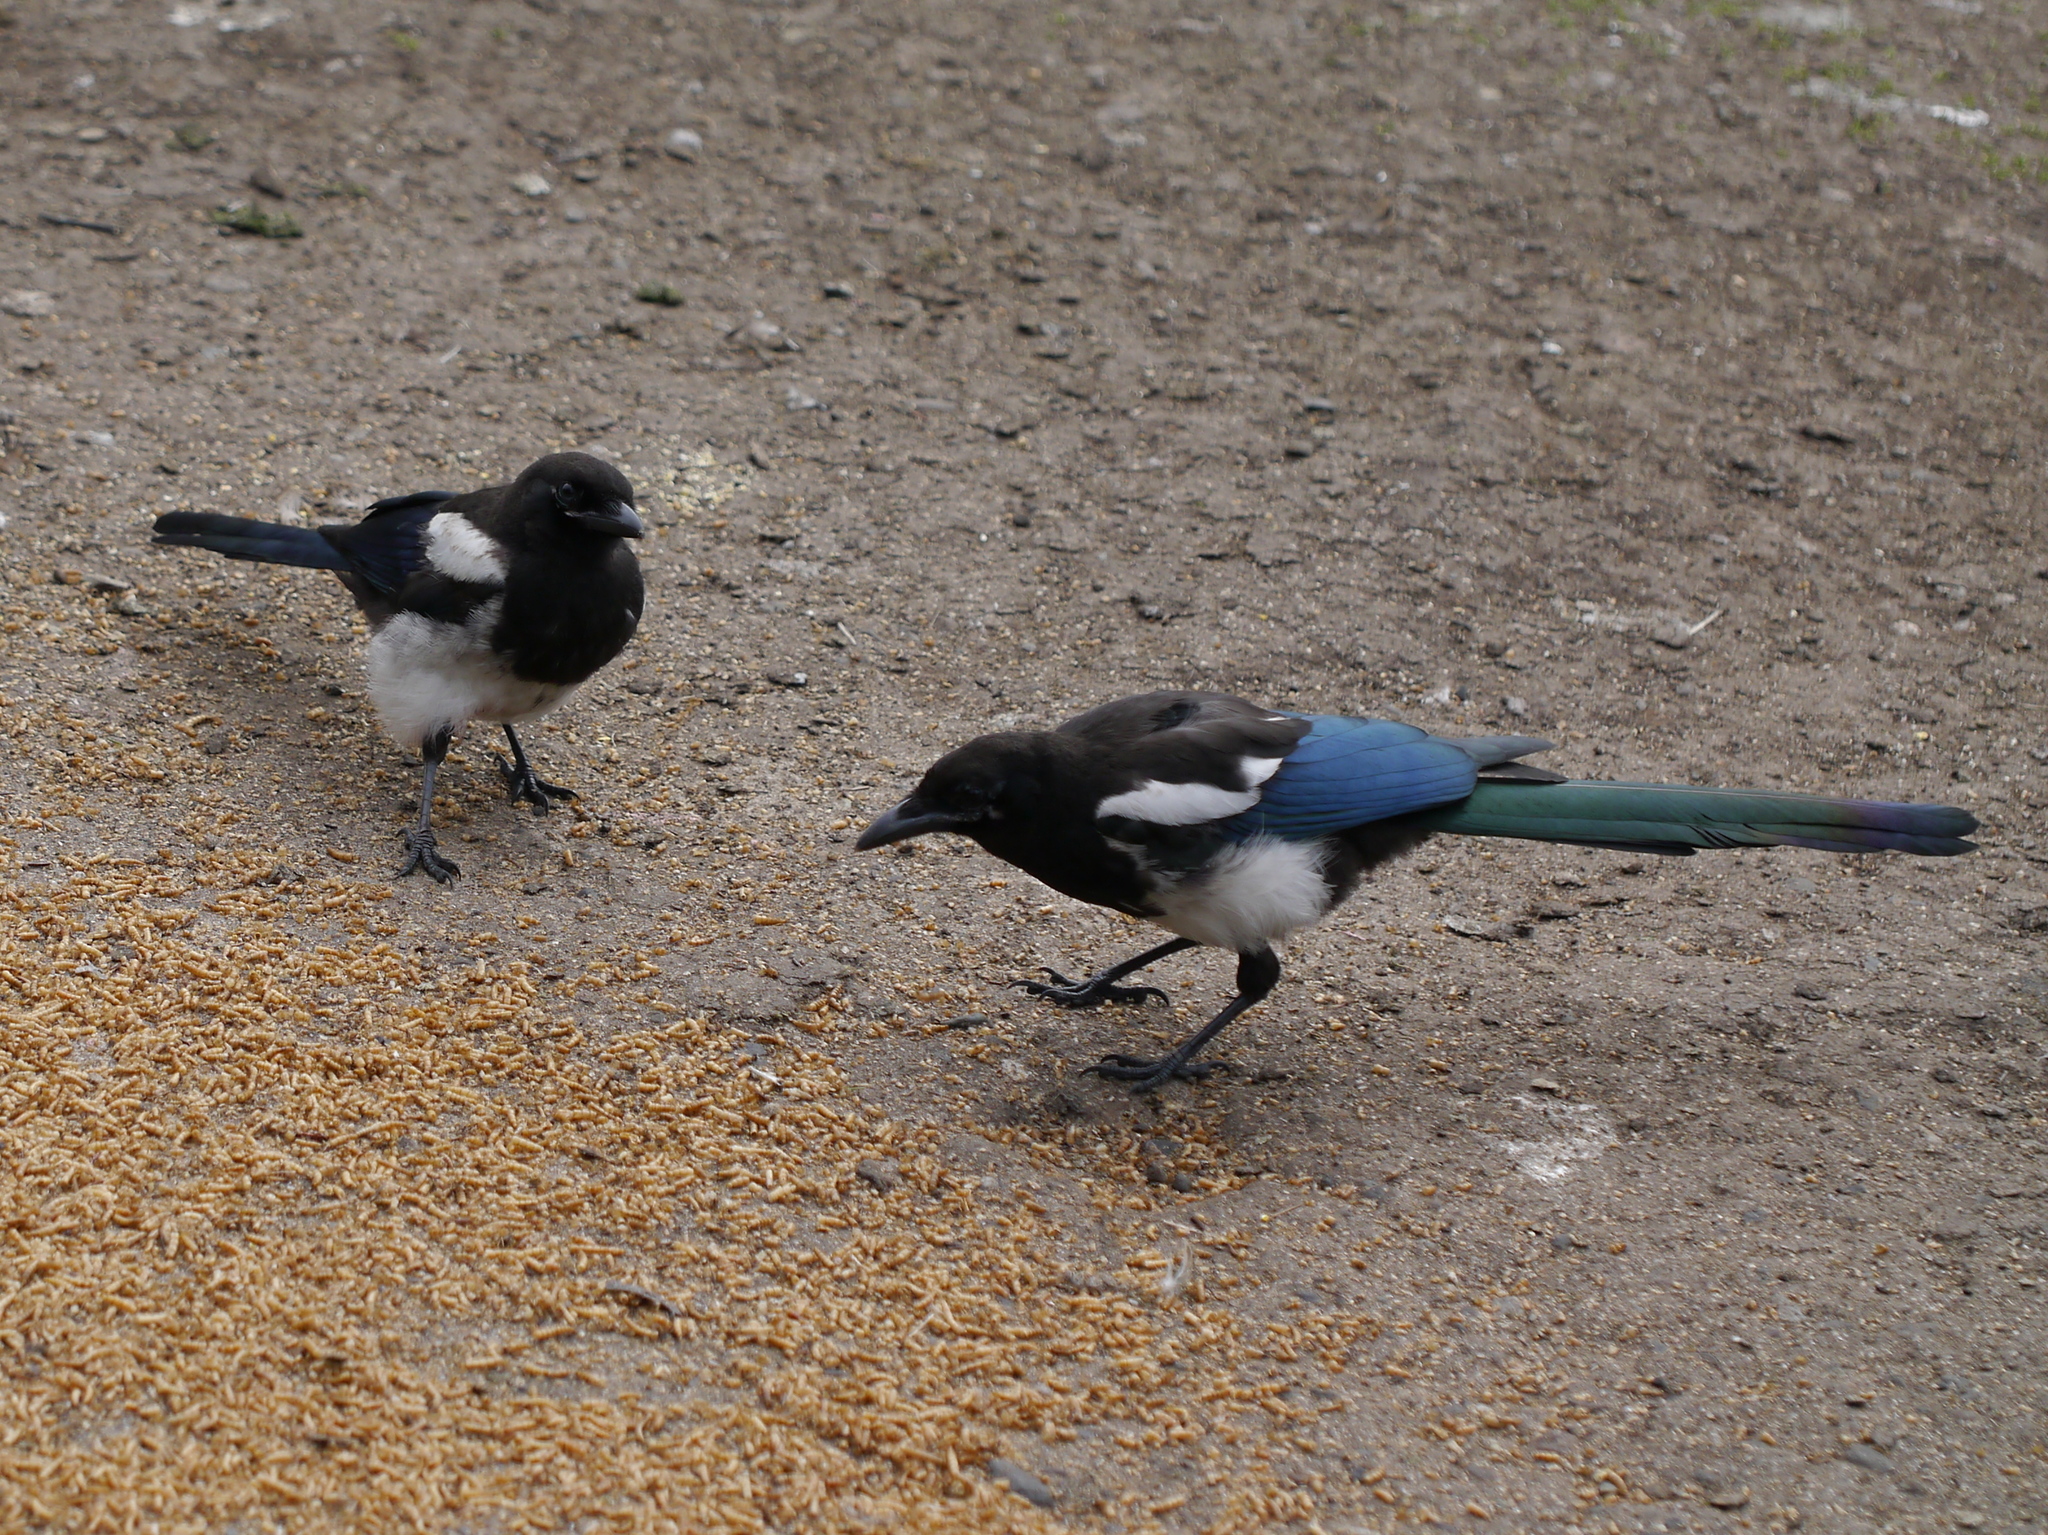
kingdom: Animalia
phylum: Chordata
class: Aves
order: Passeriformes
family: Corvidae
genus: Pica
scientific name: Pica hudsonia
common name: Black-billed magpie
